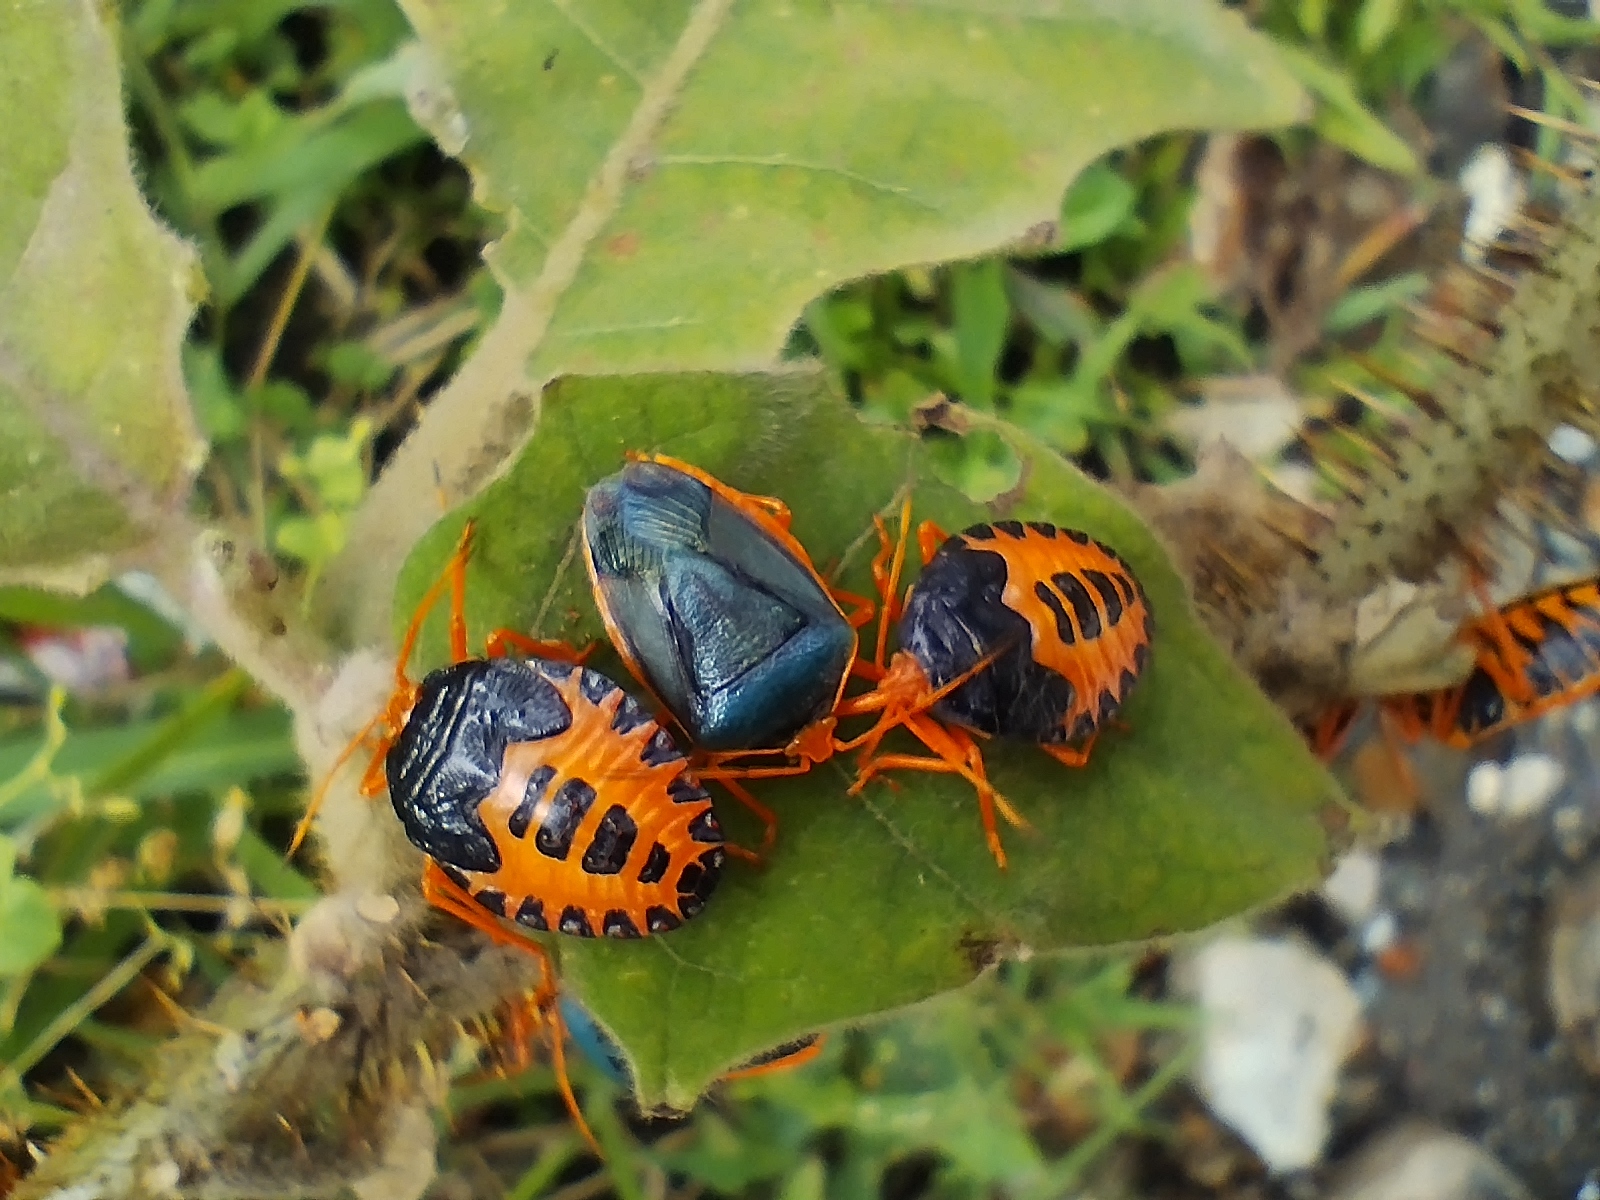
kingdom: Animalia
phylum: Arthropoda
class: Insecta
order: Hemiptera
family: Pentatomidae
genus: Edessa
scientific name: Edessa rufomarginata
